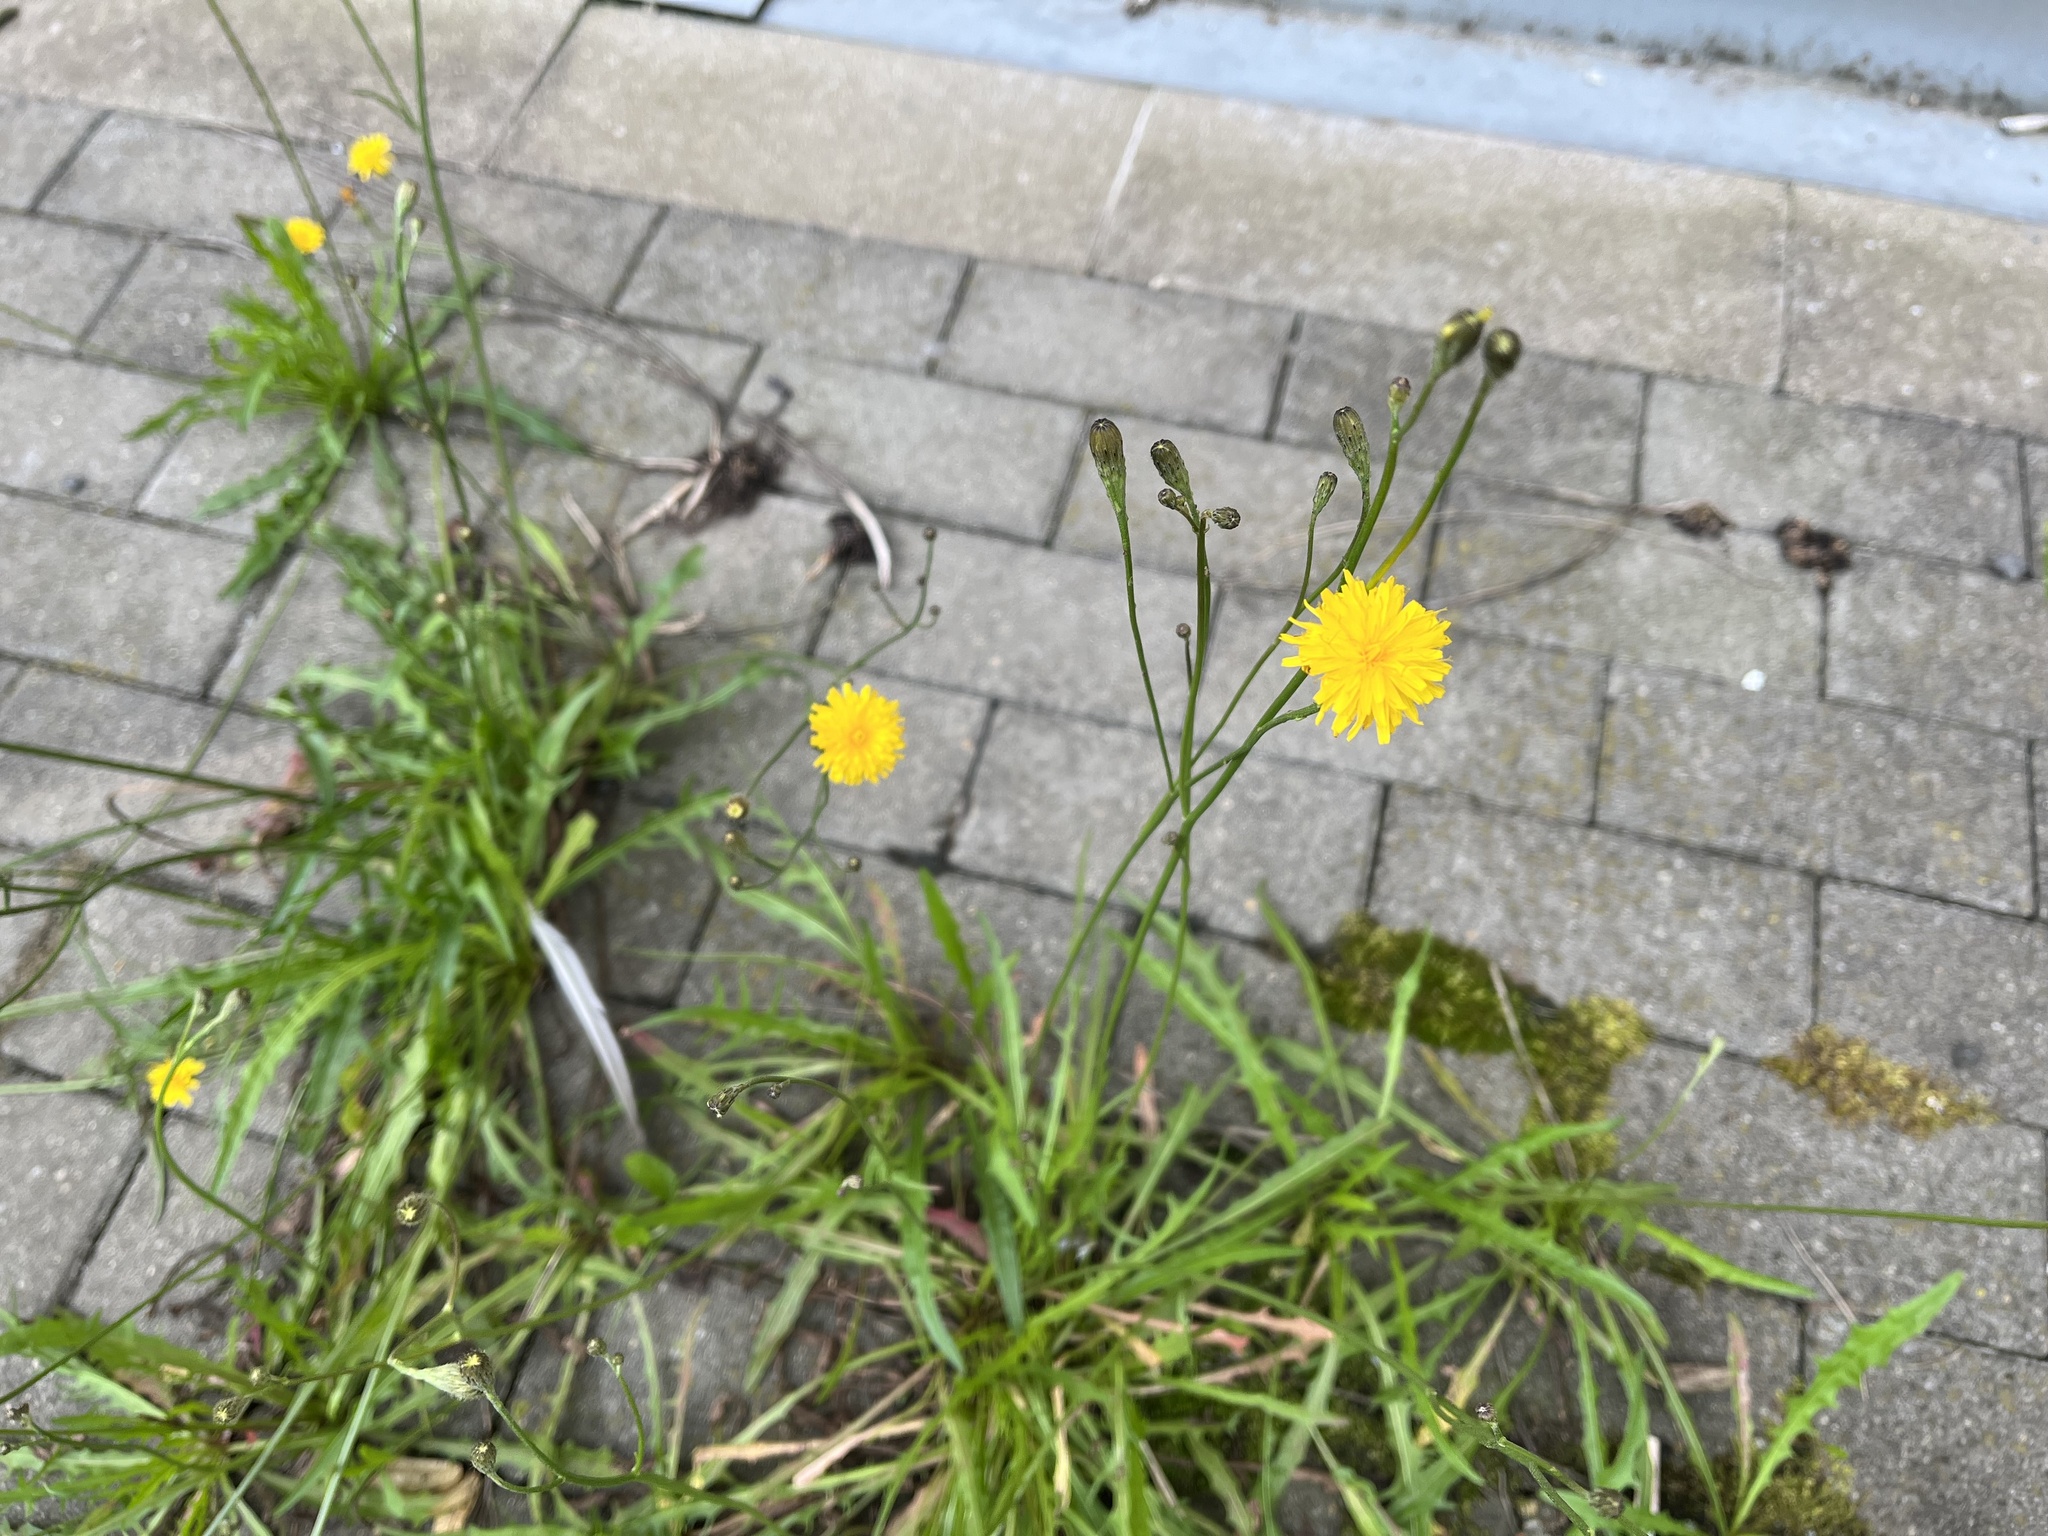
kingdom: Plantae
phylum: Tracheophyta
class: Magnoliopsida
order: Asterales
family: Asteraceae
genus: Scorzoneroides
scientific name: Scorzoneroides autumnalis
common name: Autumn hawkbit
